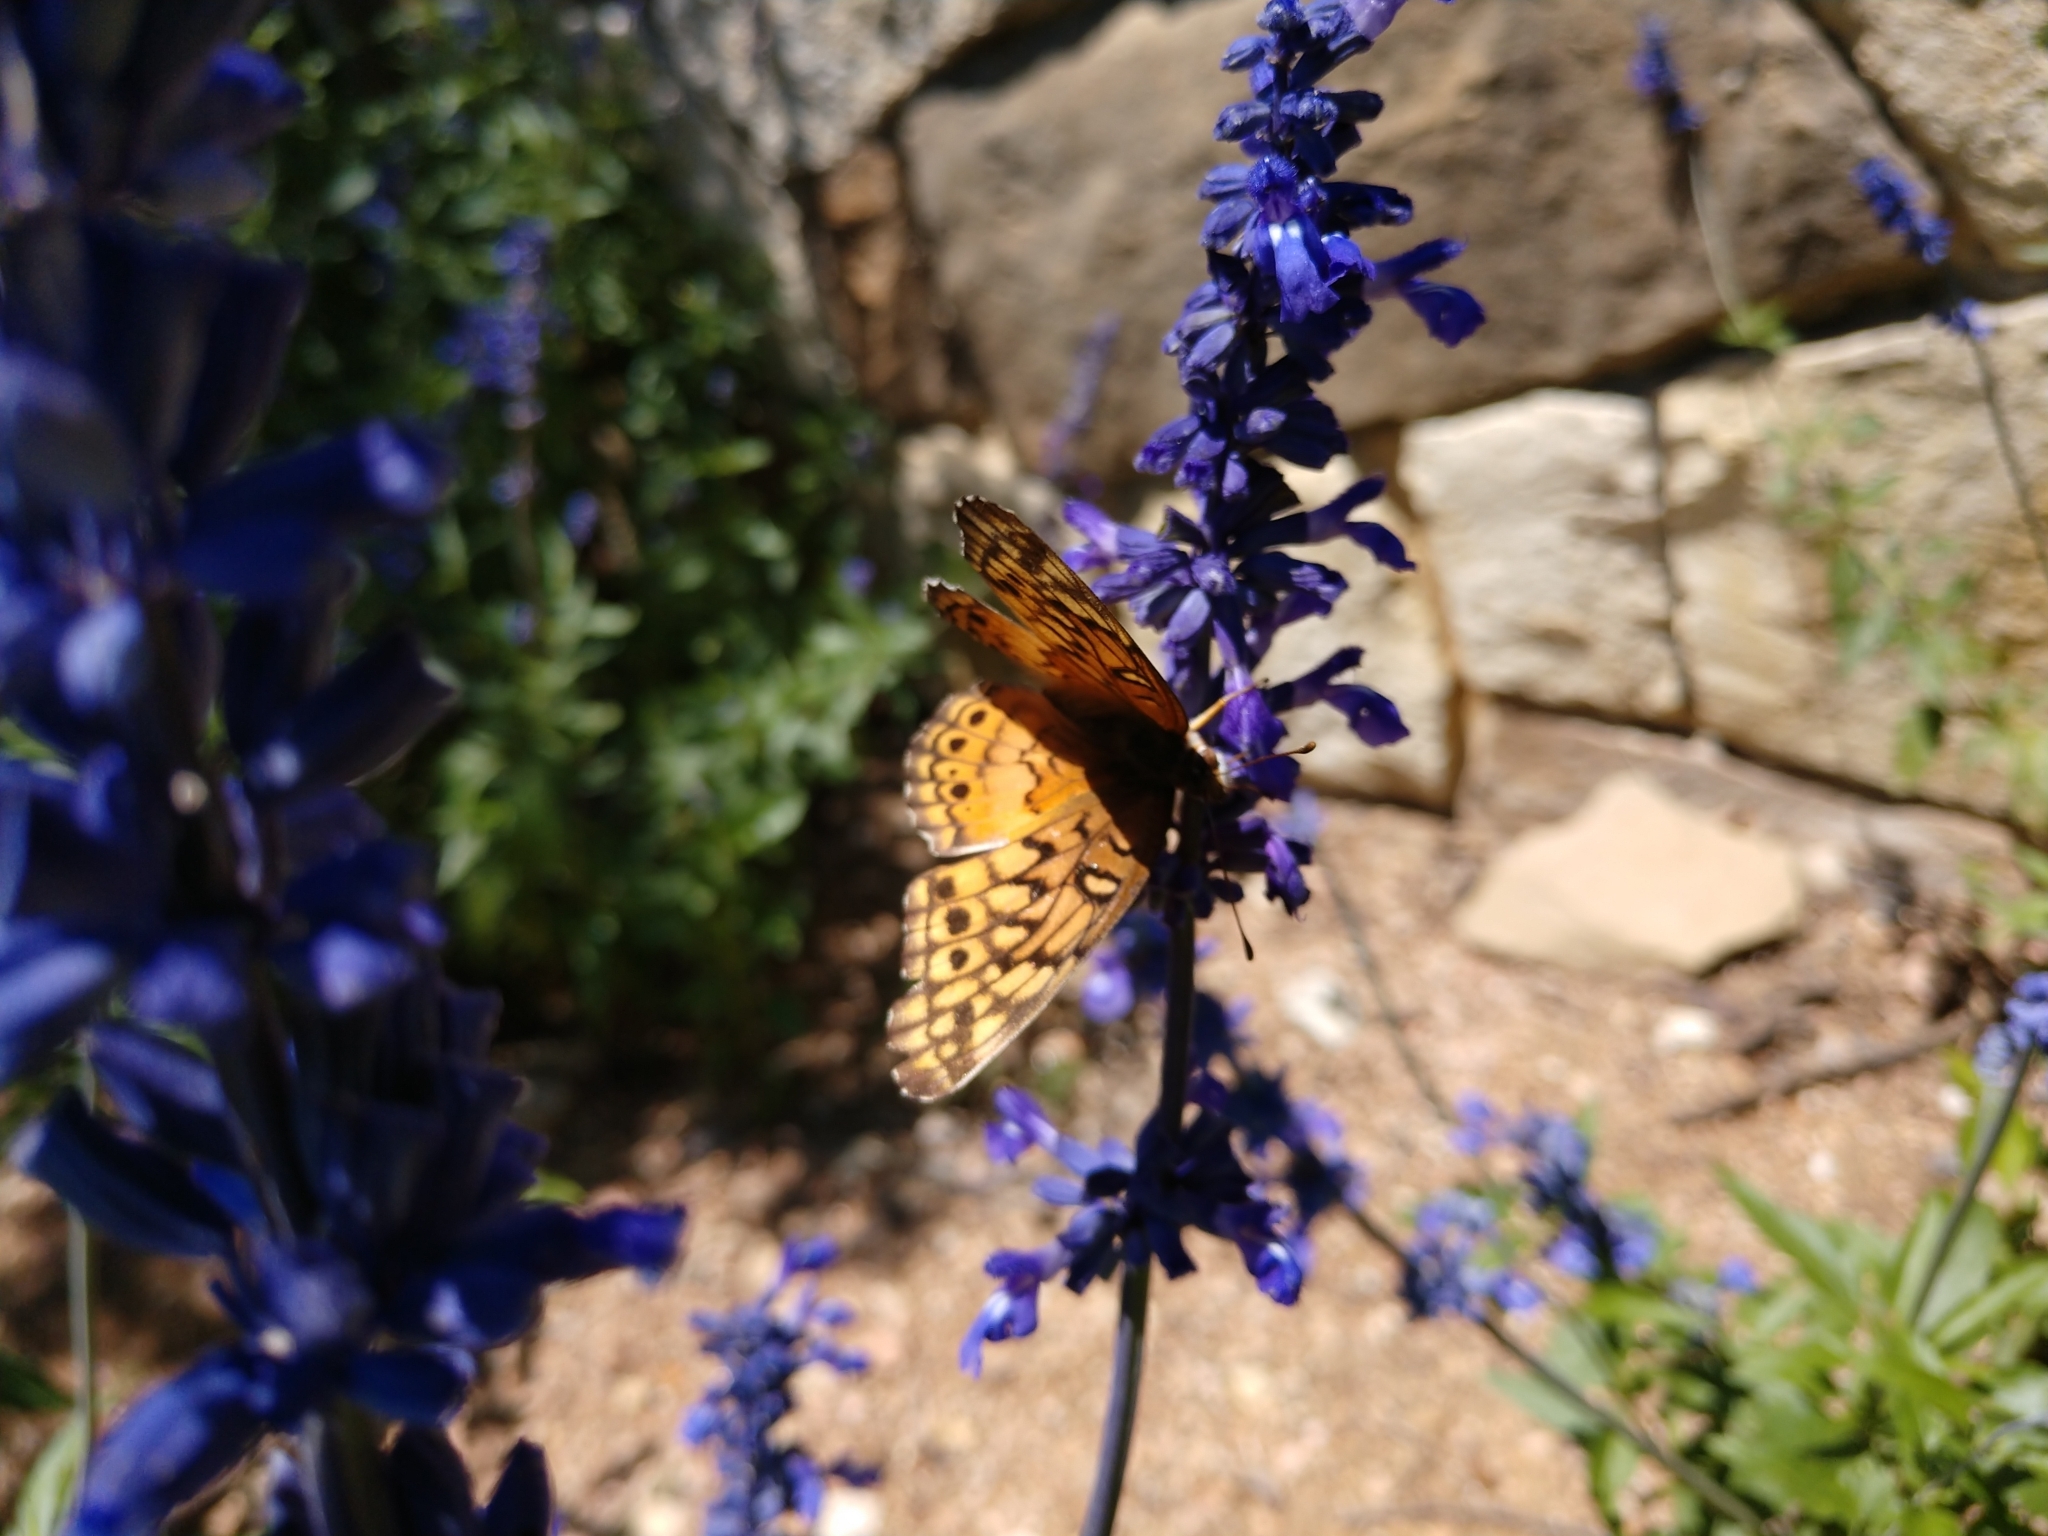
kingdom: Animalia
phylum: Arthropoda
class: Insecta
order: Lepidoptera
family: Nymphalidae
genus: Euptoieta
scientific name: Euptoieta claudia
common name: Variegated fritillary
